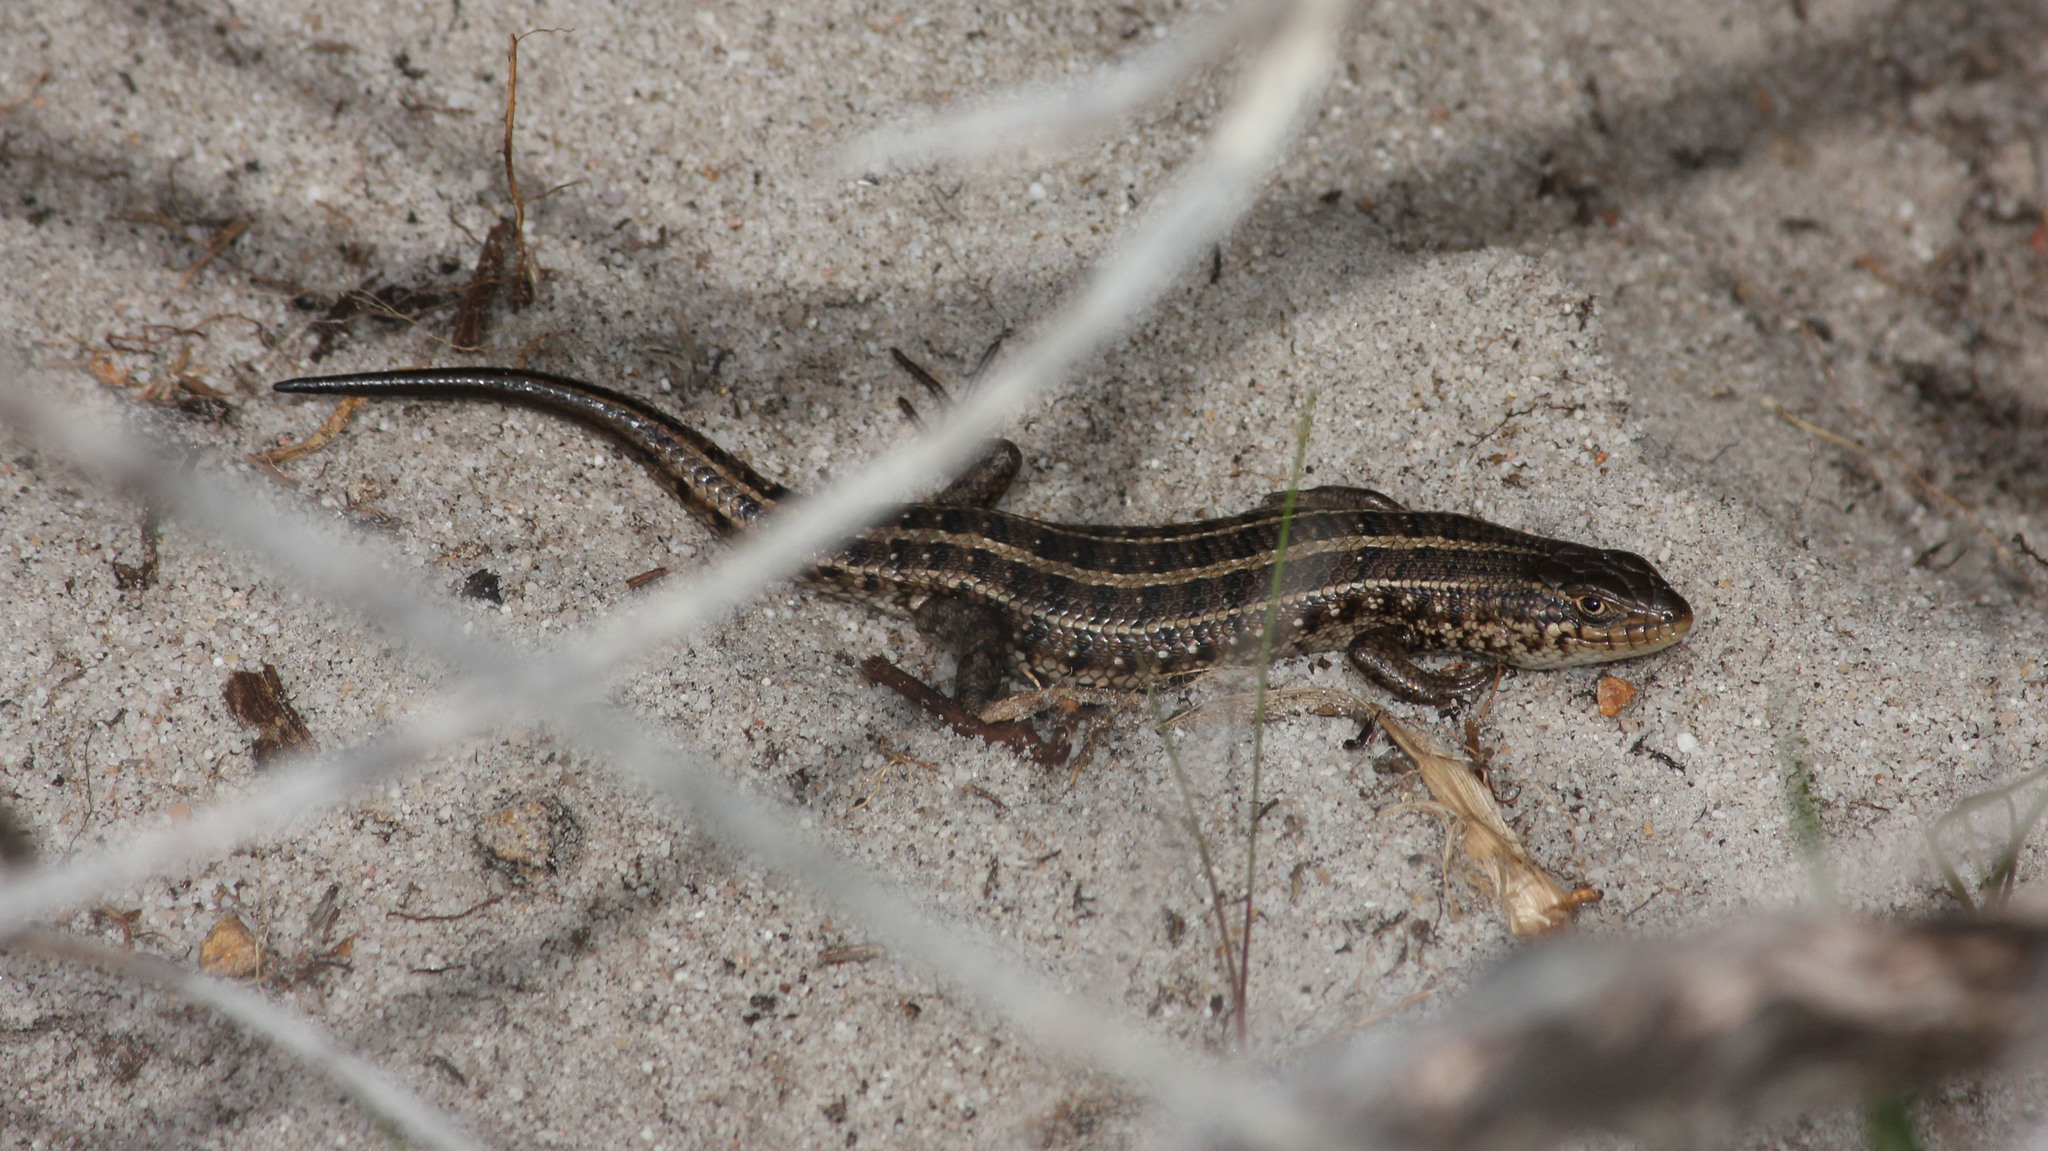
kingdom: Animalia
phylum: Chordata
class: Squamata
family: Scincidae
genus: Trachylepis
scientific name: Trachylepis capensis
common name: Cape skink
